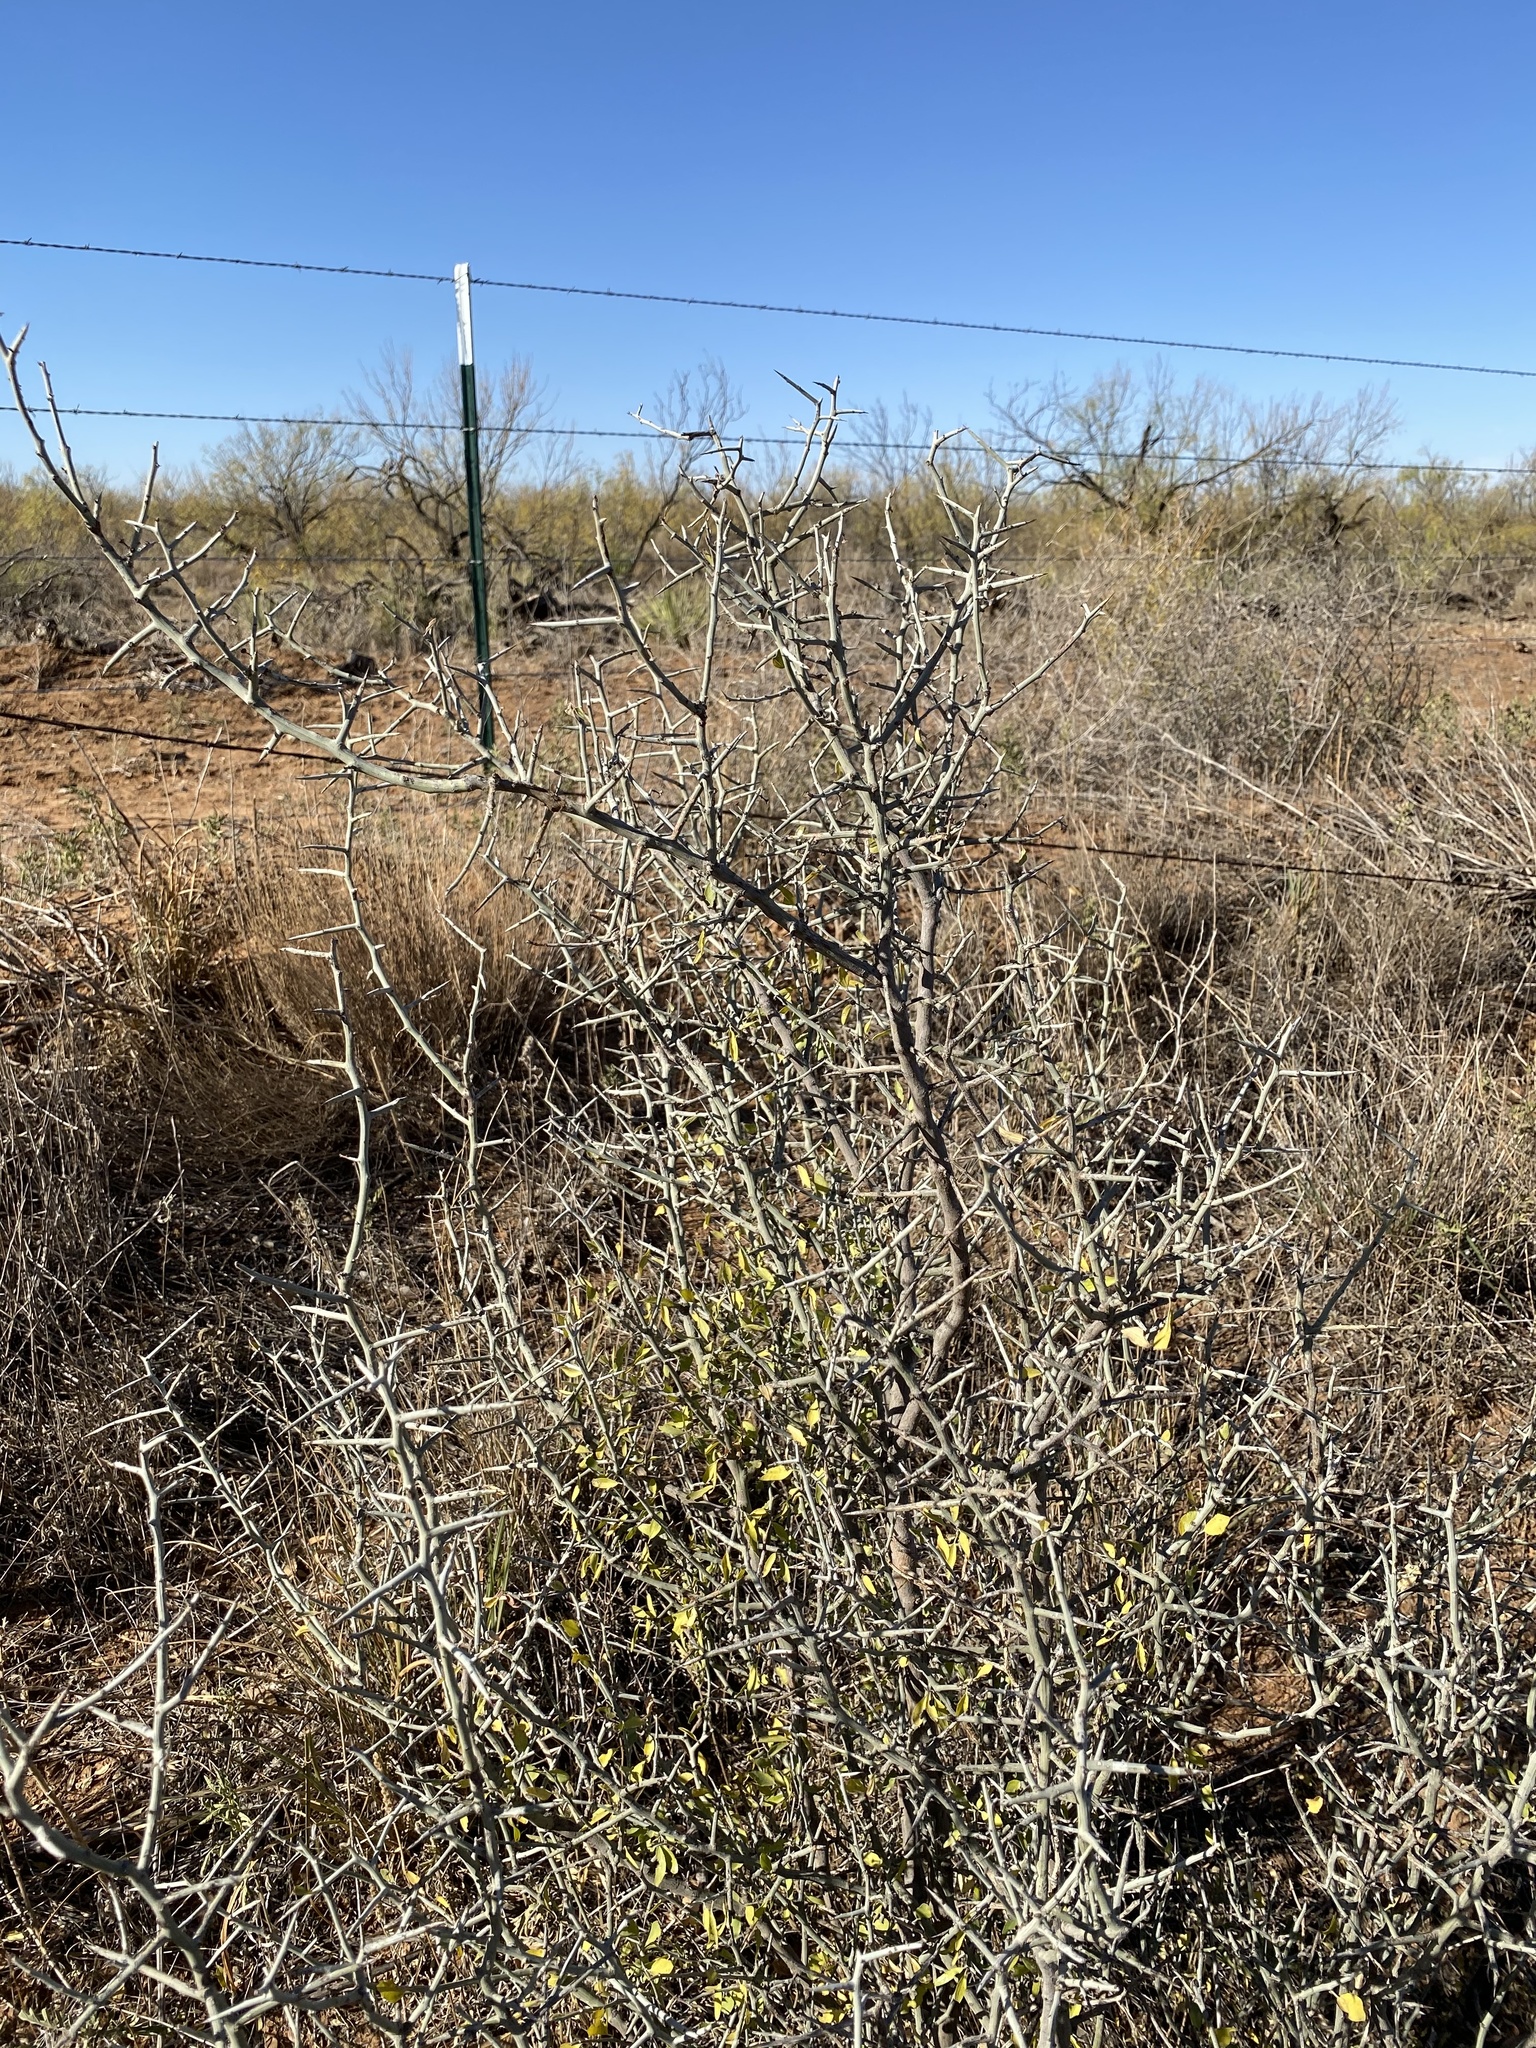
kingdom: Plantae
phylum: Tracheophyta
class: Magnoliopsida
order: Rosales
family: Rhamnaceae
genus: Sarcomphalus
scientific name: Sarcomphalus obtusifolius
